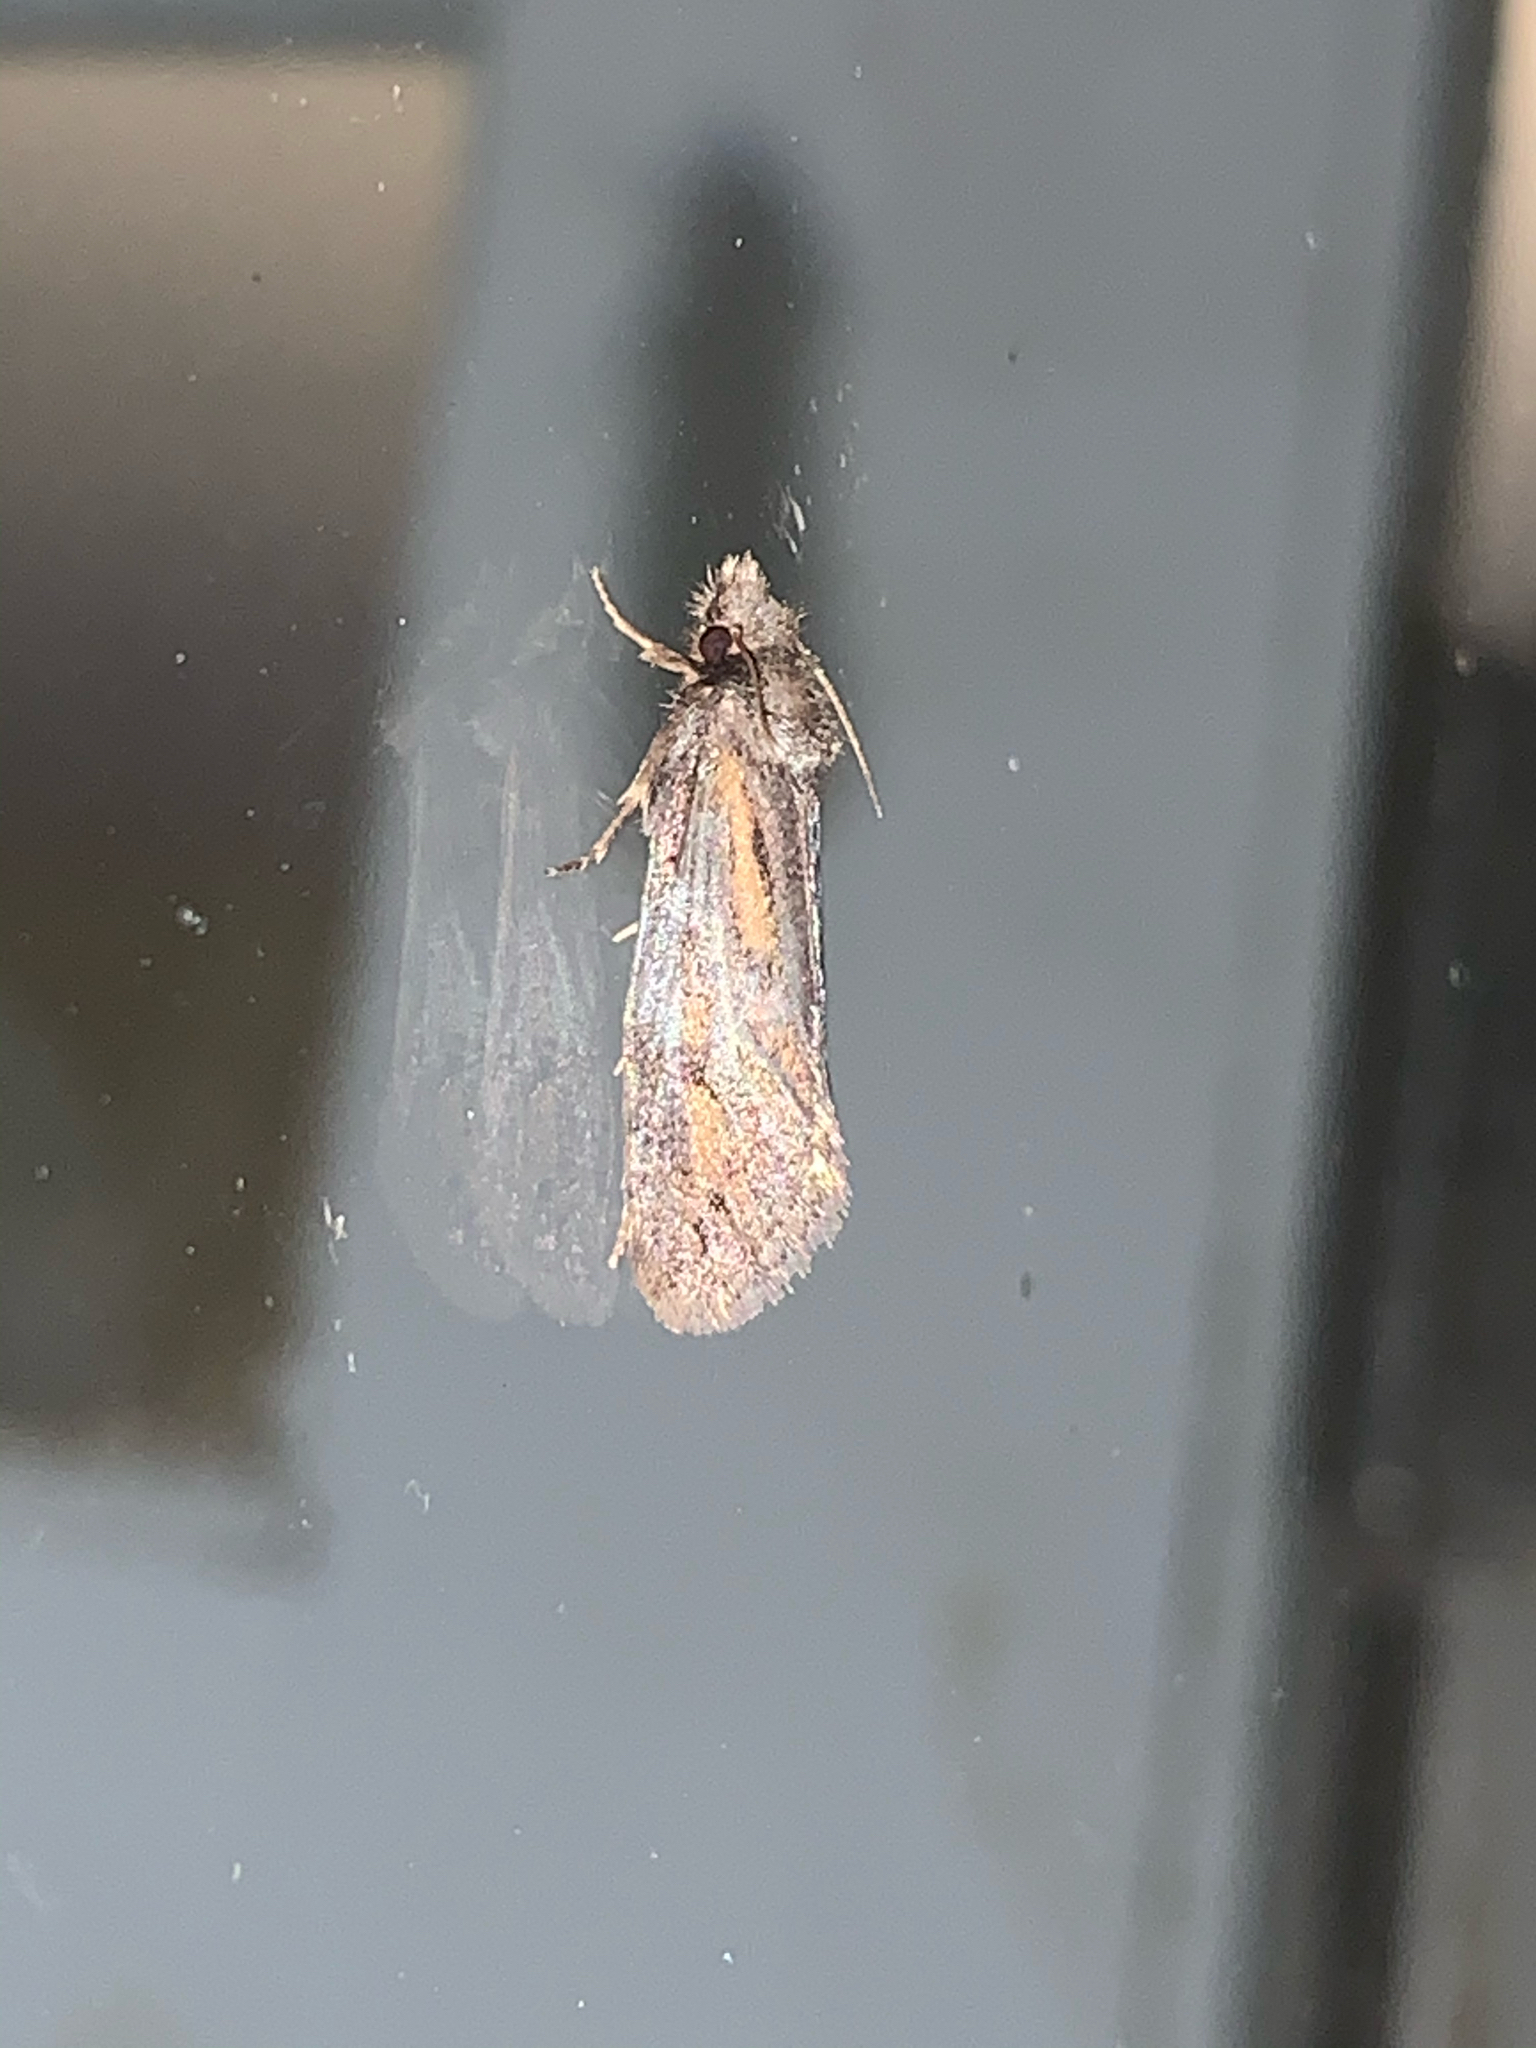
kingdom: Animalia
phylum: Arthropoda
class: Insecta
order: Lepidoptera
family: Tineidae
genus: Acrolophus
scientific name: Acrolophus popeanella
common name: Clemens' grass tubeworm moth
